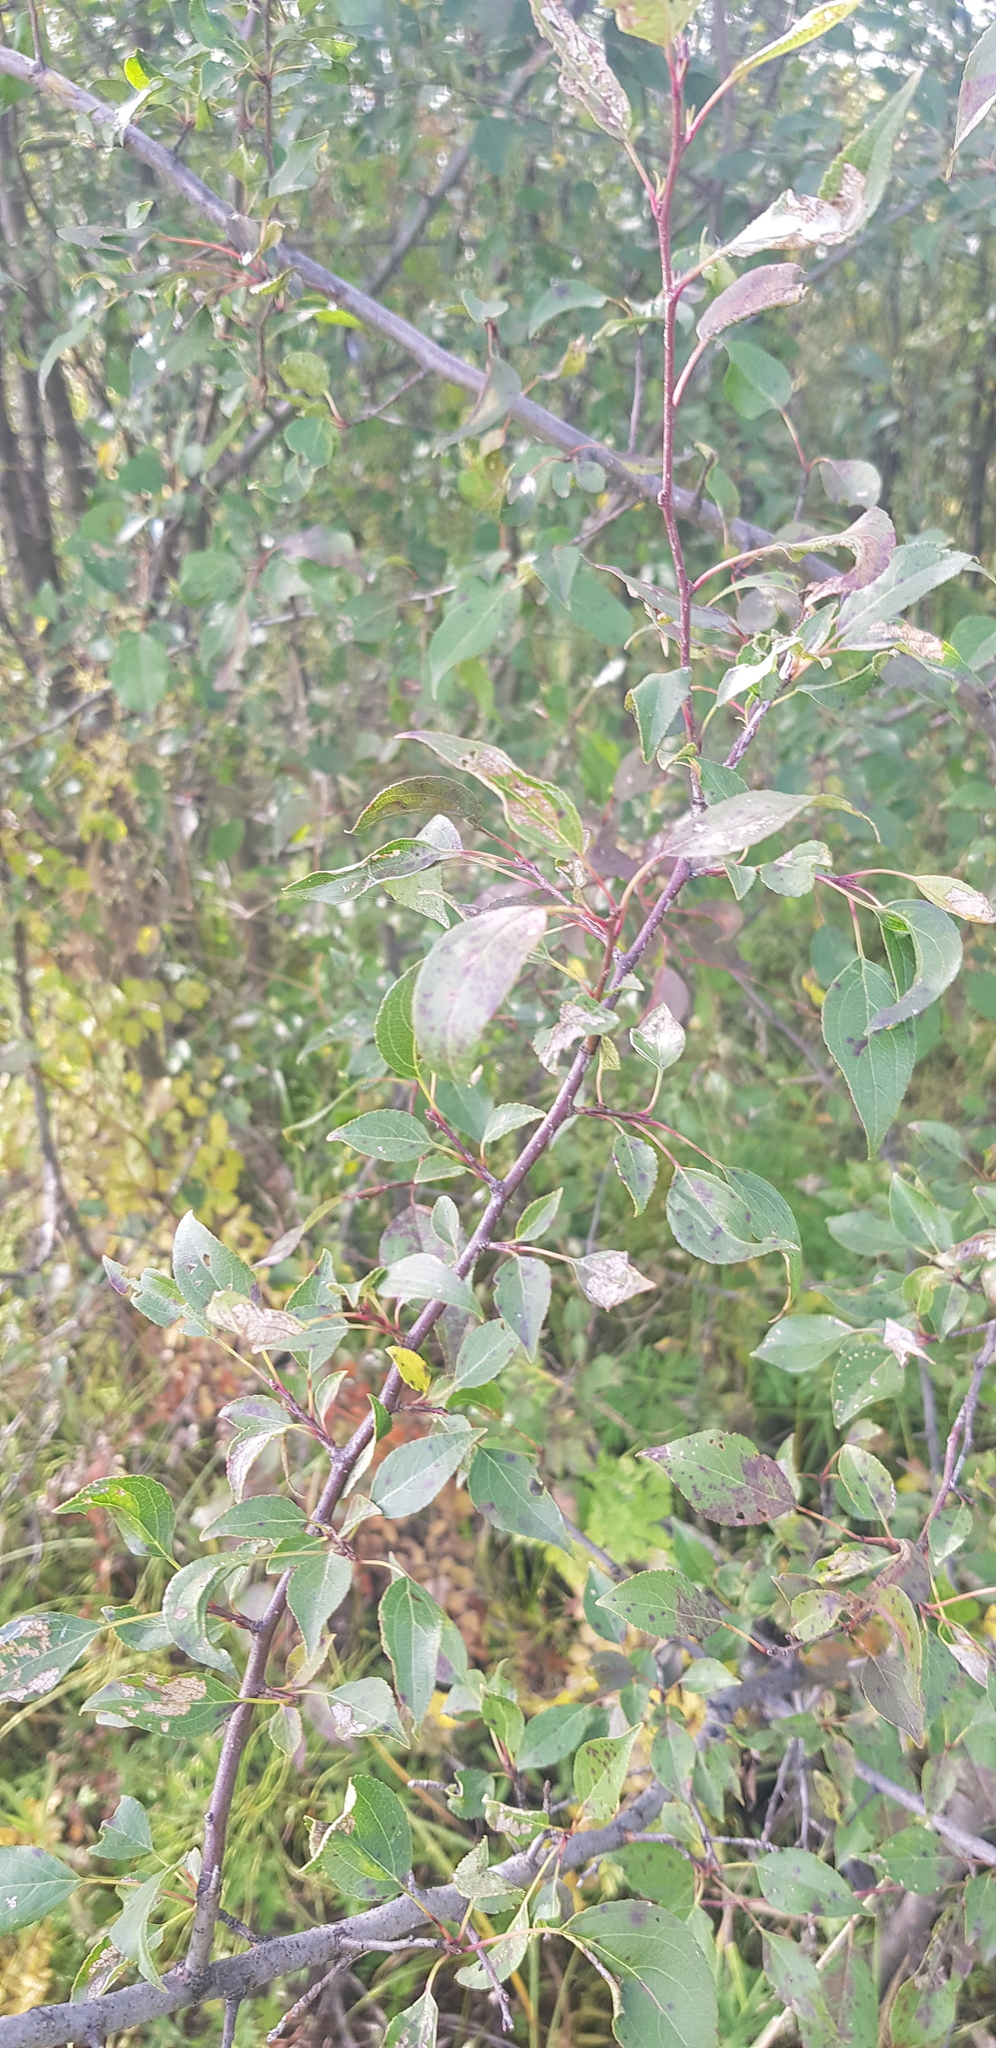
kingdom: Plantae
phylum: Tracheophyta
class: Magnoliopsida
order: Rosales
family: Rosaceae
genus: Malus
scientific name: Malus baccata
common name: Siberian crab
